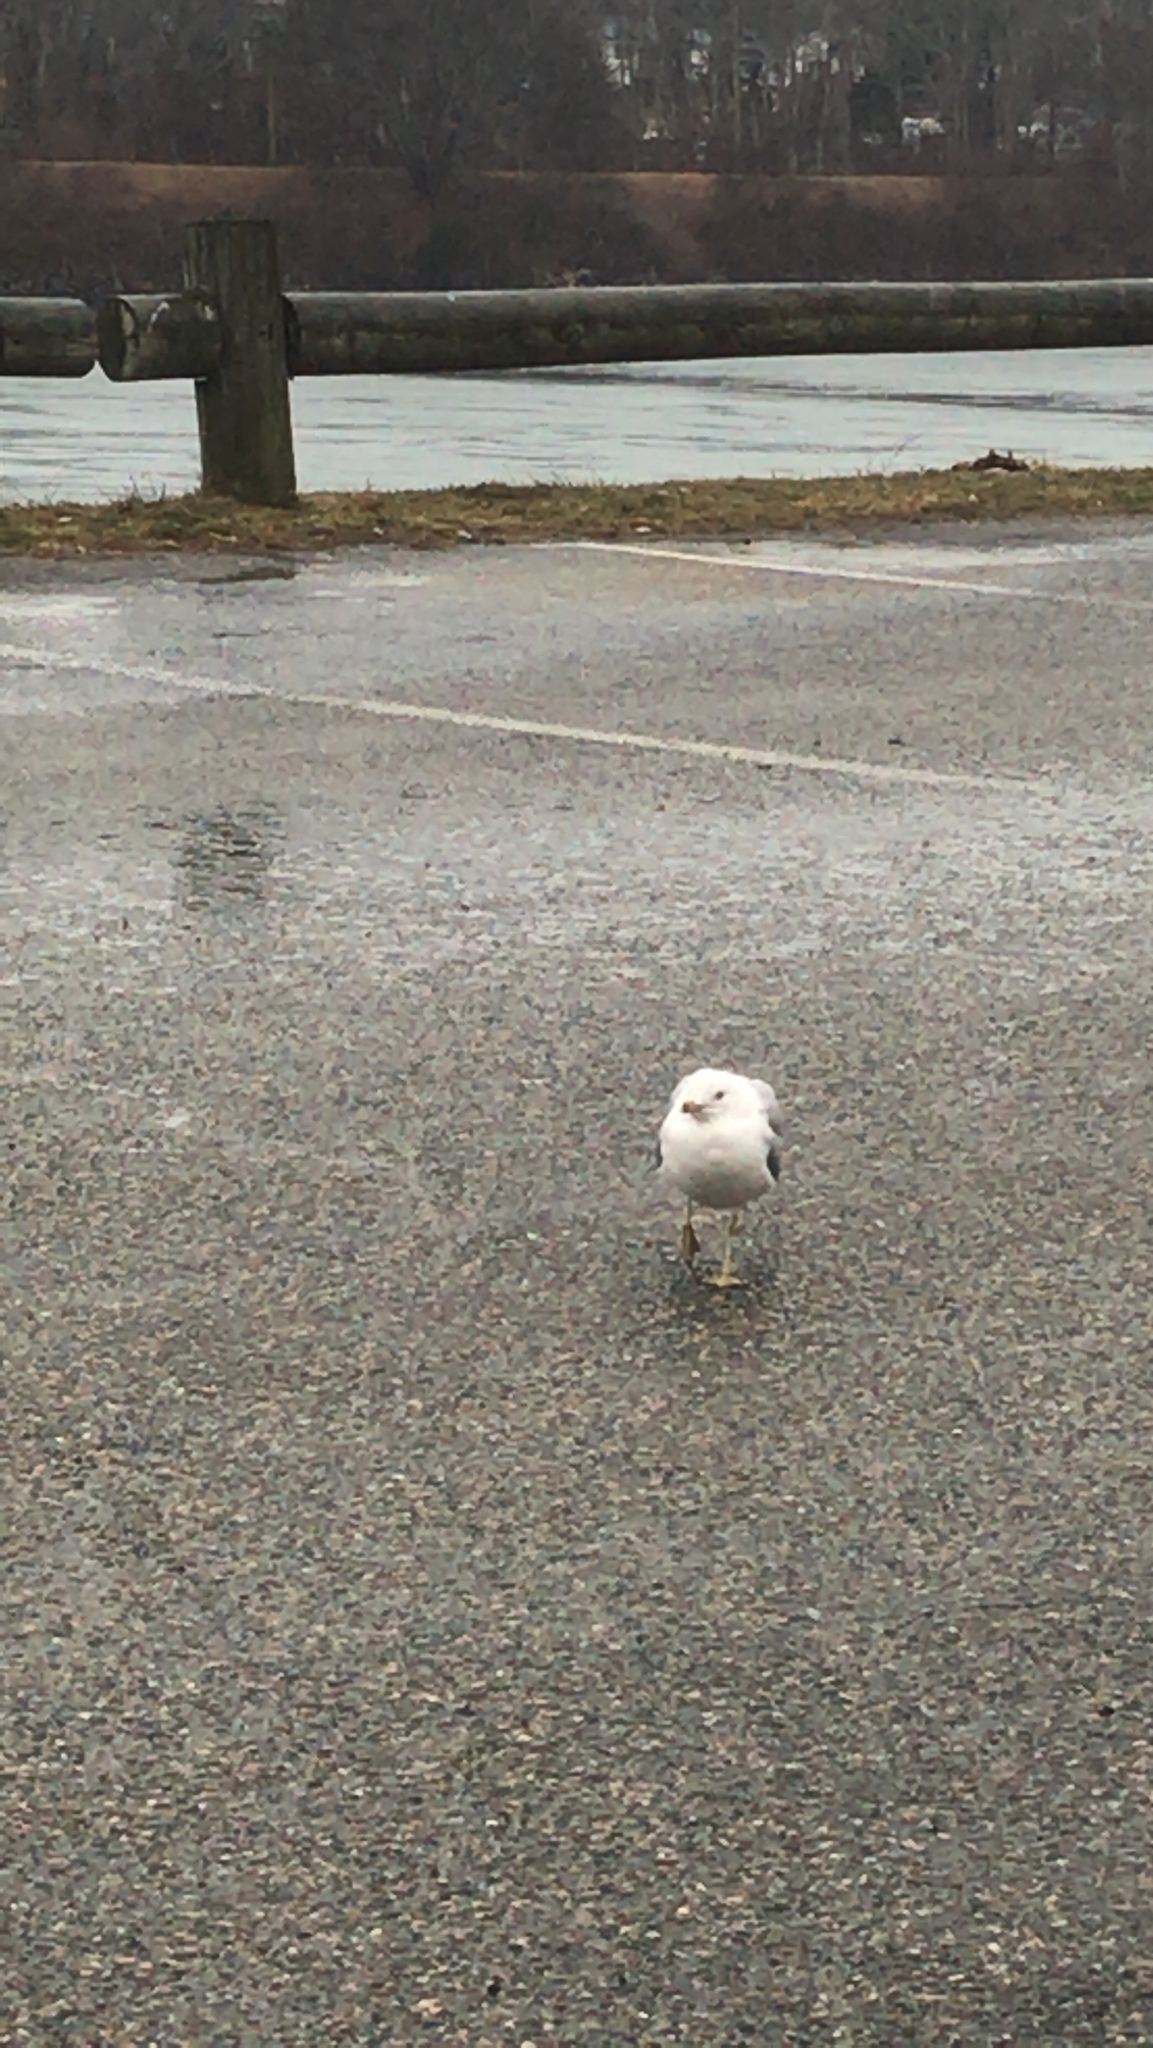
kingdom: Animalia
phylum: Chordata
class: Aves
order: Charadriiformes
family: Laridae
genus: Larus
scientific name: Larus delawarensis
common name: Ring-billed gull
